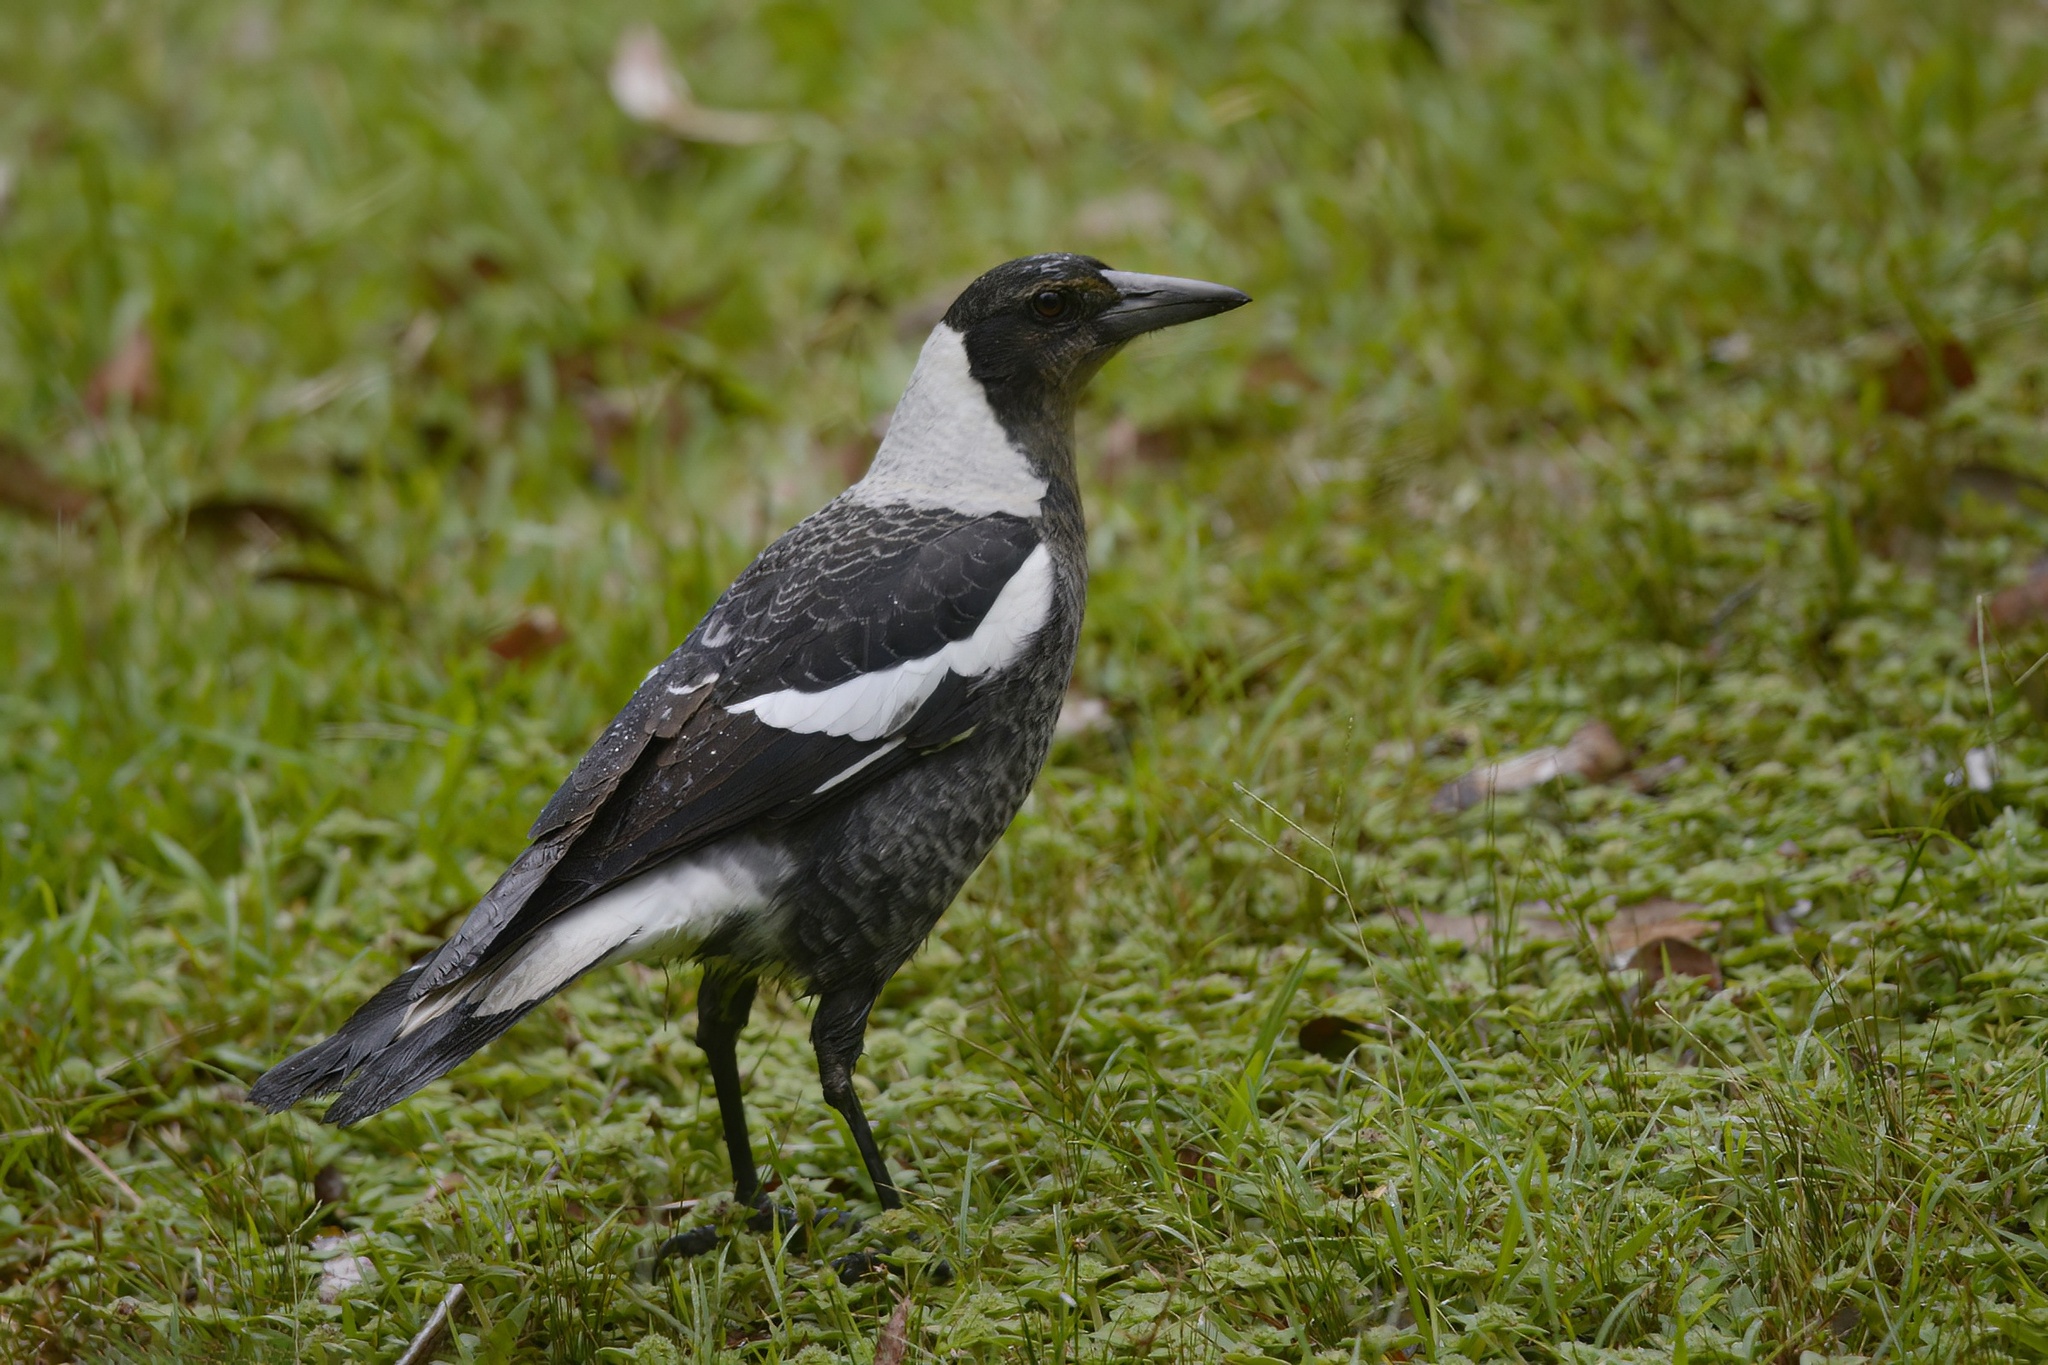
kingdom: Animalia
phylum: Chordata
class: Aves
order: Passeriformes
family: Cracticidae
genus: Gymnorhina
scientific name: Gymnorhina tibicen
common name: Australian magpie
